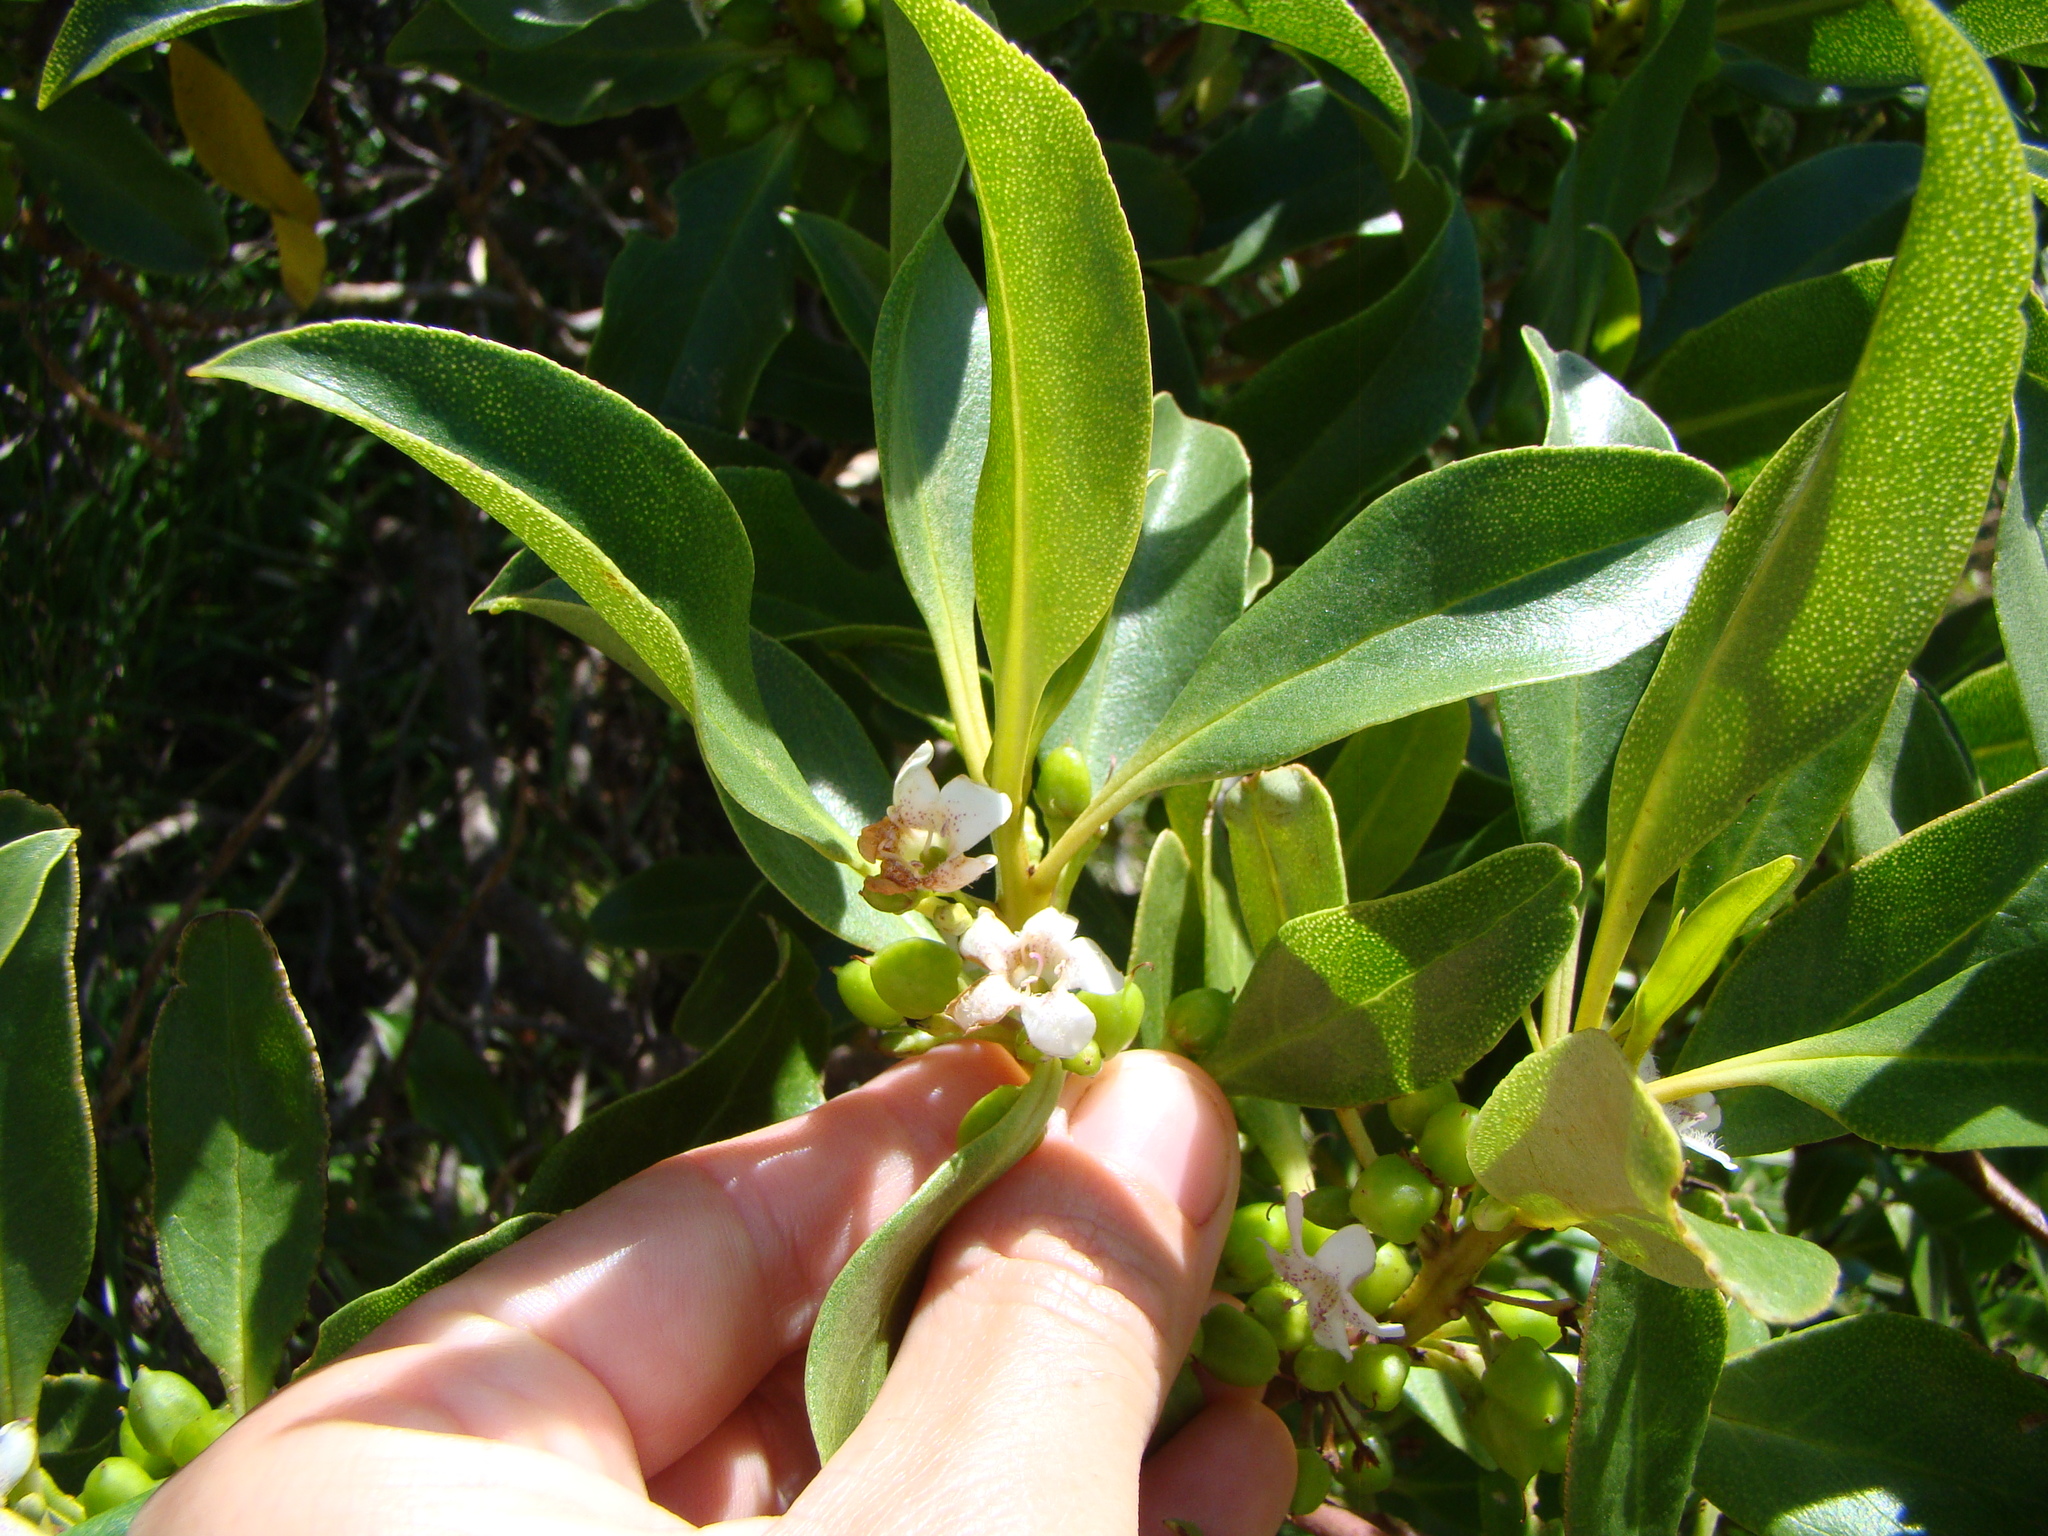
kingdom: Plantae
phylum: Tracheophyta
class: Magnoliopsida
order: Lamiales
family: Scrophulariaceae
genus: Myoporum
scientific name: Myoporum laetum
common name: Ngaio tree
